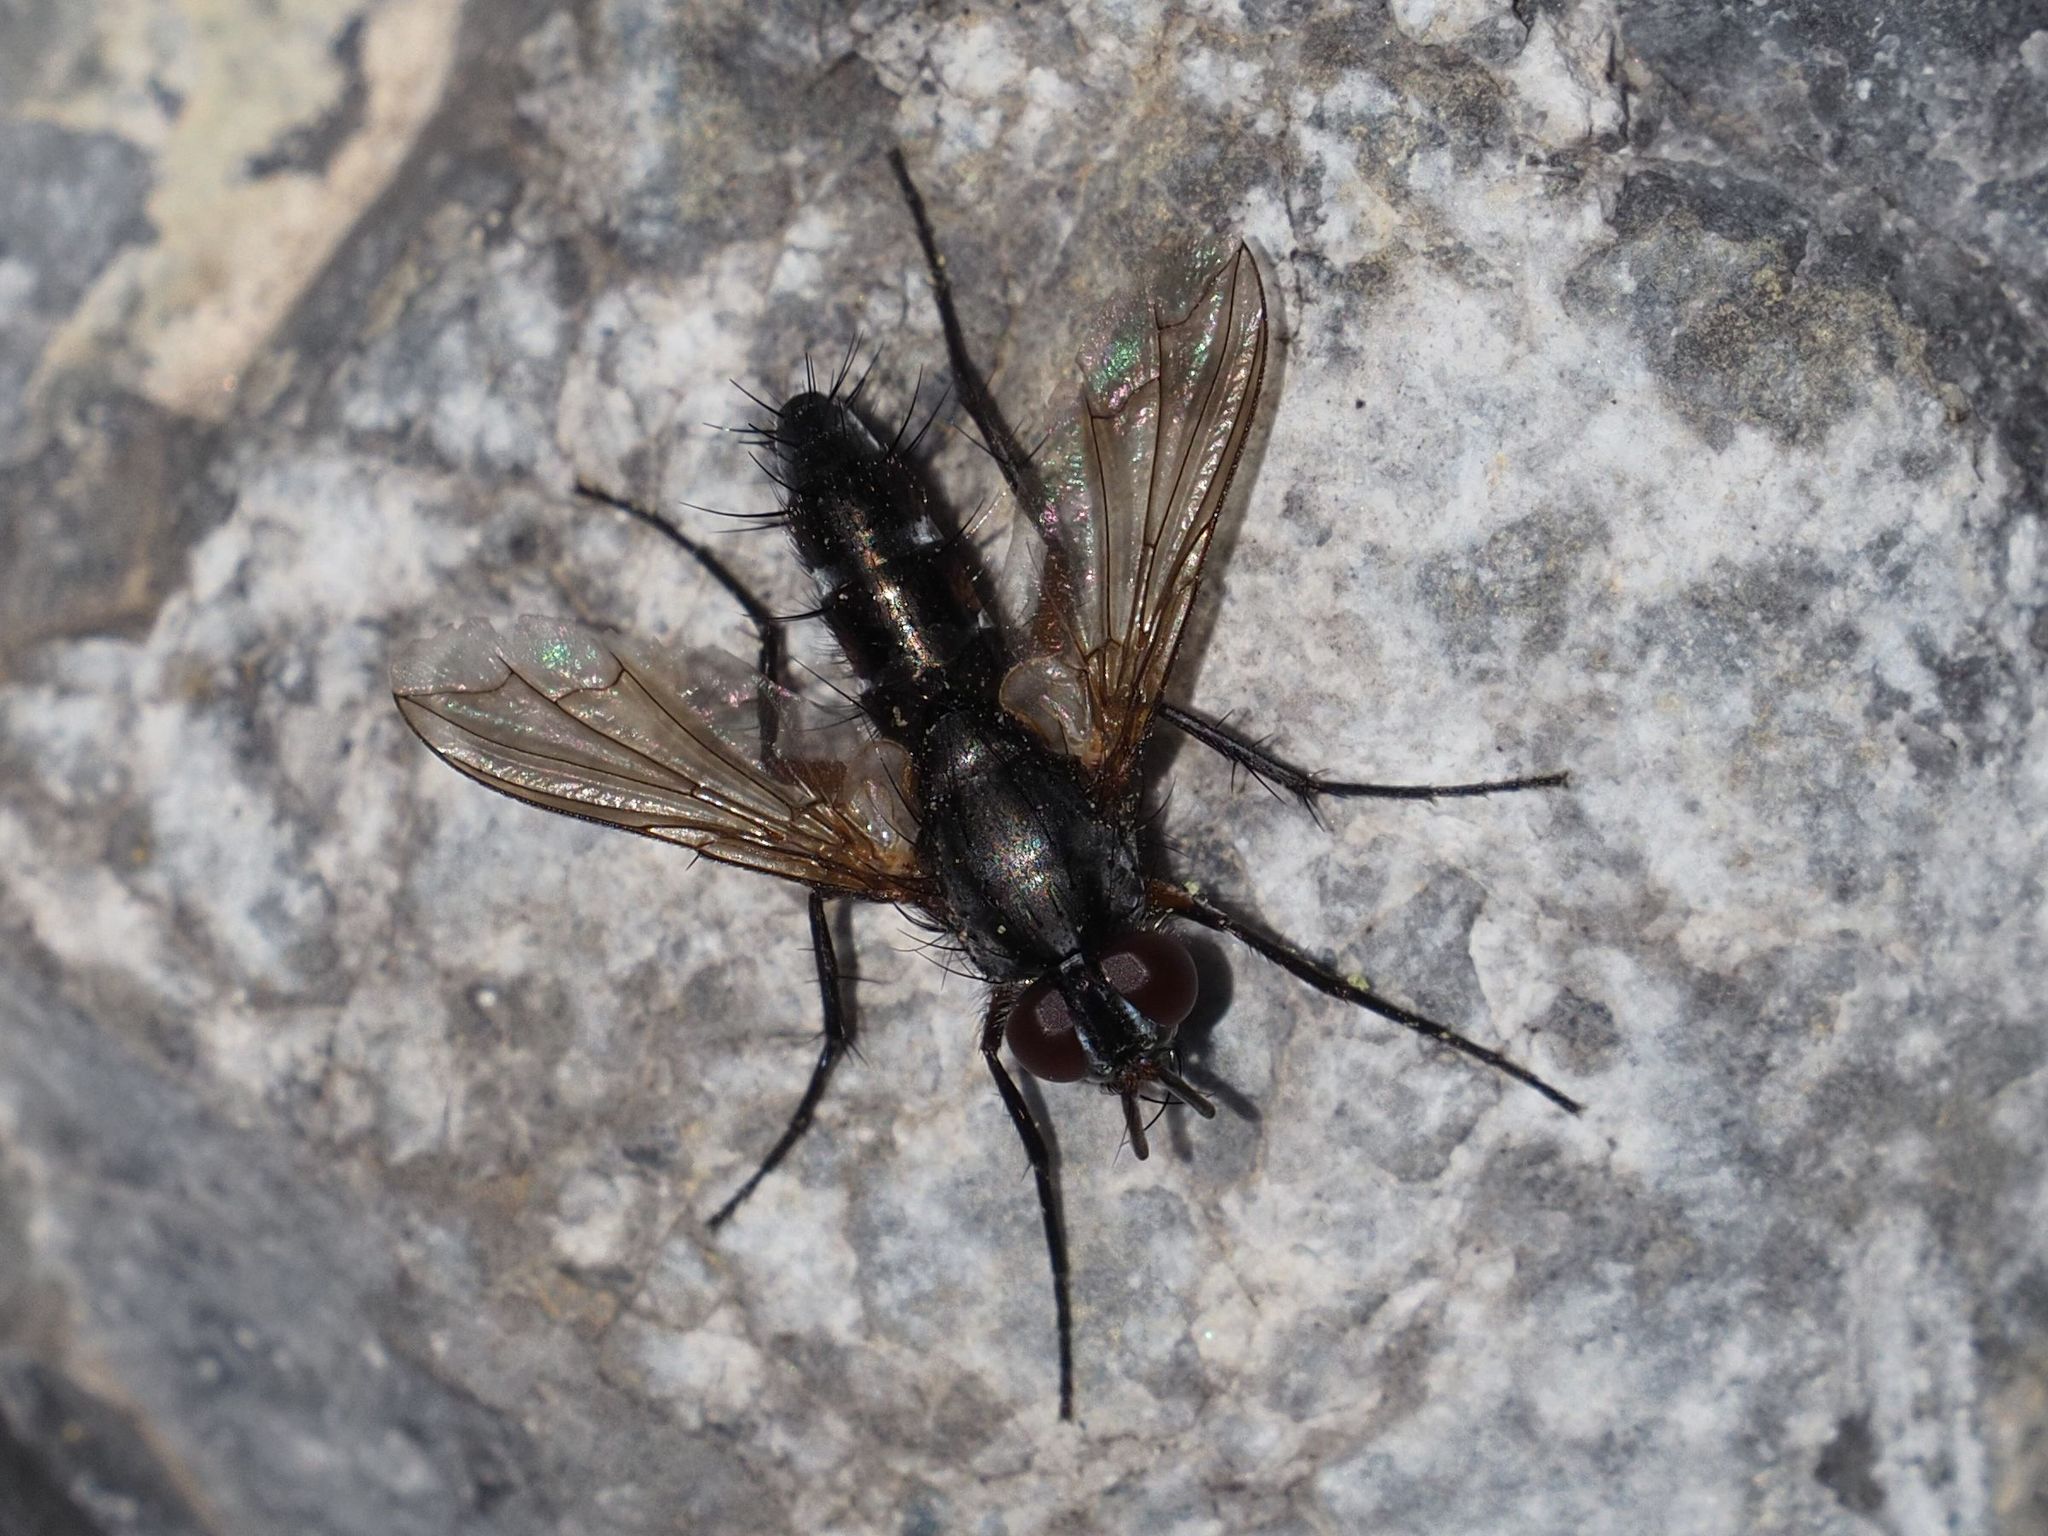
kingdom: Animalia
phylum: Arthropoda
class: Insecta
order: Diptera
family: Tachinidae
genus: Mintho
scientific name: Mintho rufiventris
